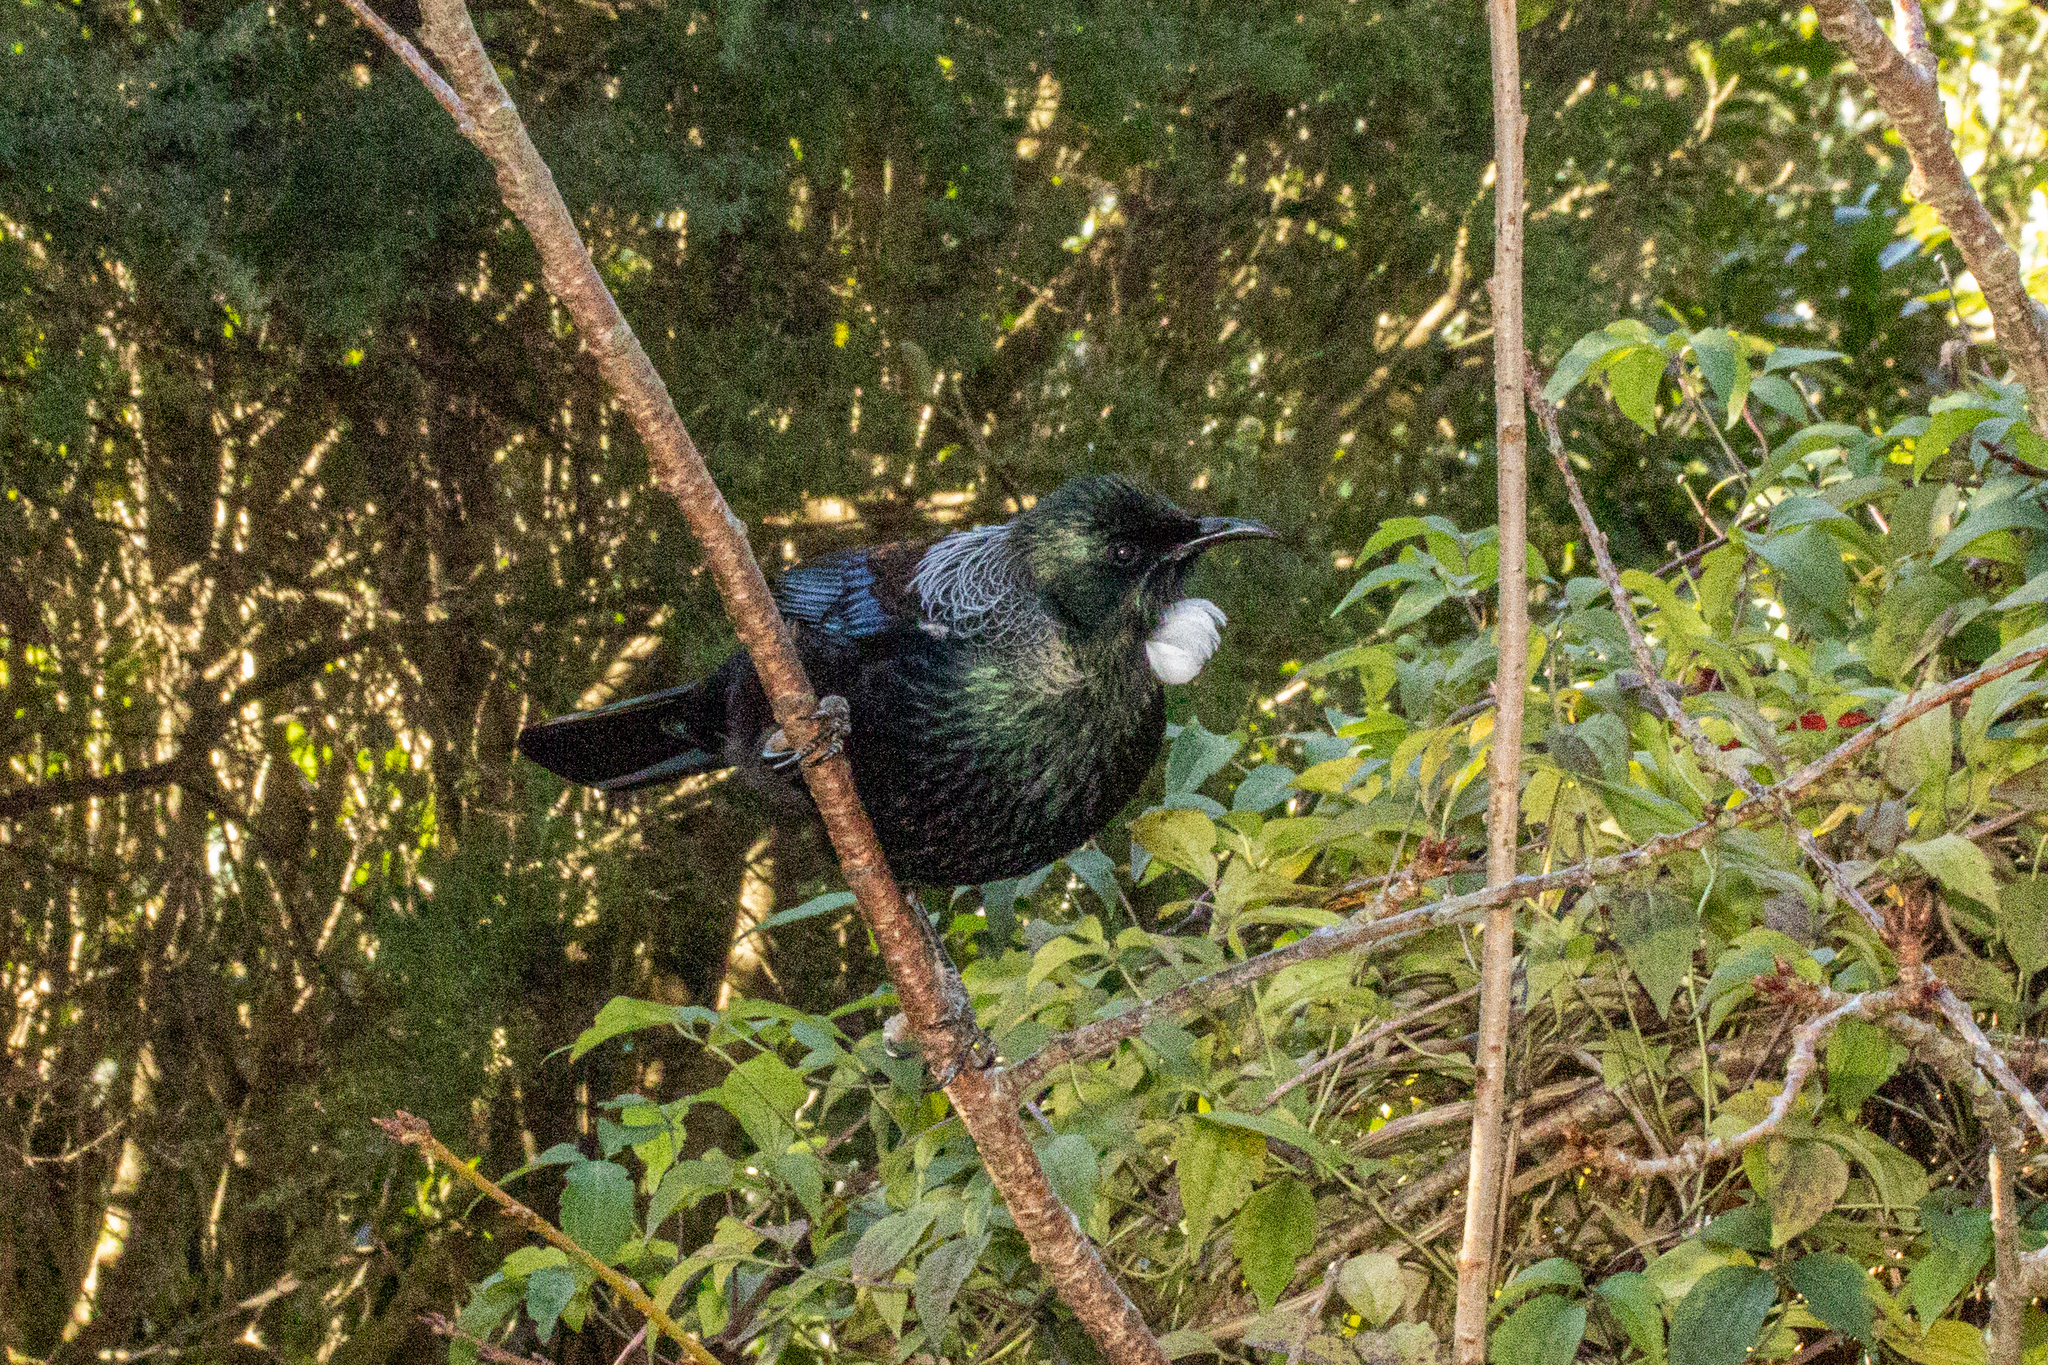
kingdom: Animalia
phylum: Chordata
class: Aves
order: Passeriformes
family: Meliphagidae
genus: Prosthemadera
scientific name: Prosthemadera novaeseelandiae
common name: Tui
